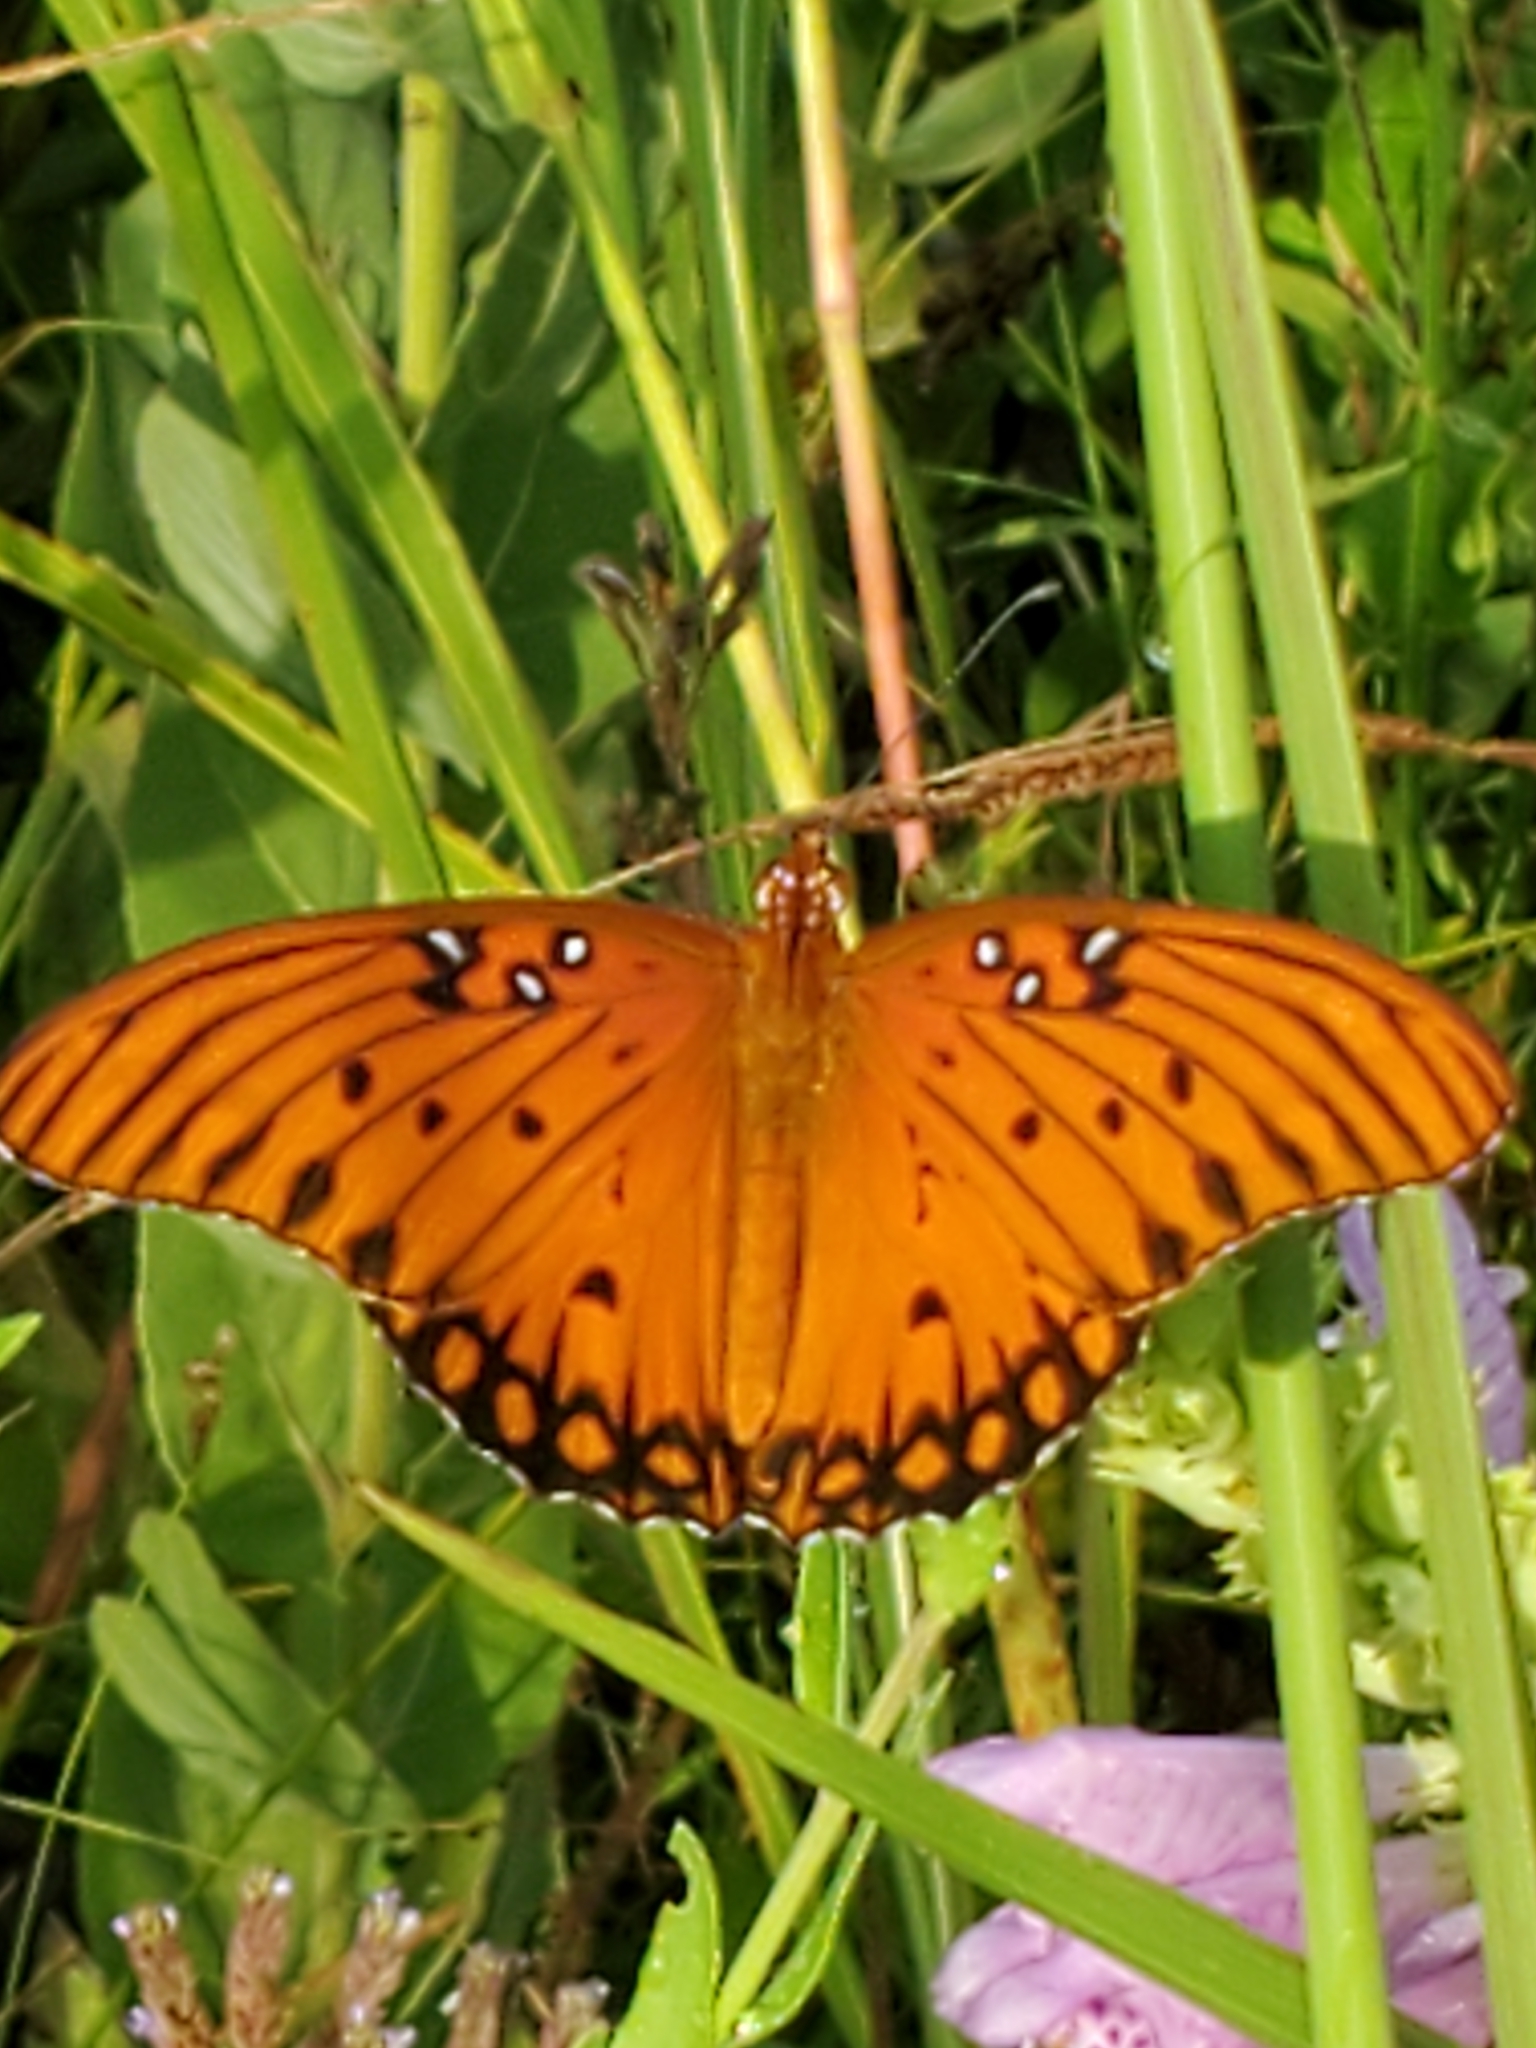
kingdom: Animalia
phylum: Arthropoda
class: Insecta
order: Lepidoptera
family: Nymphalidae
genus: Dione
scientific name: Dione vanillae
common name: Gulf fritillary
